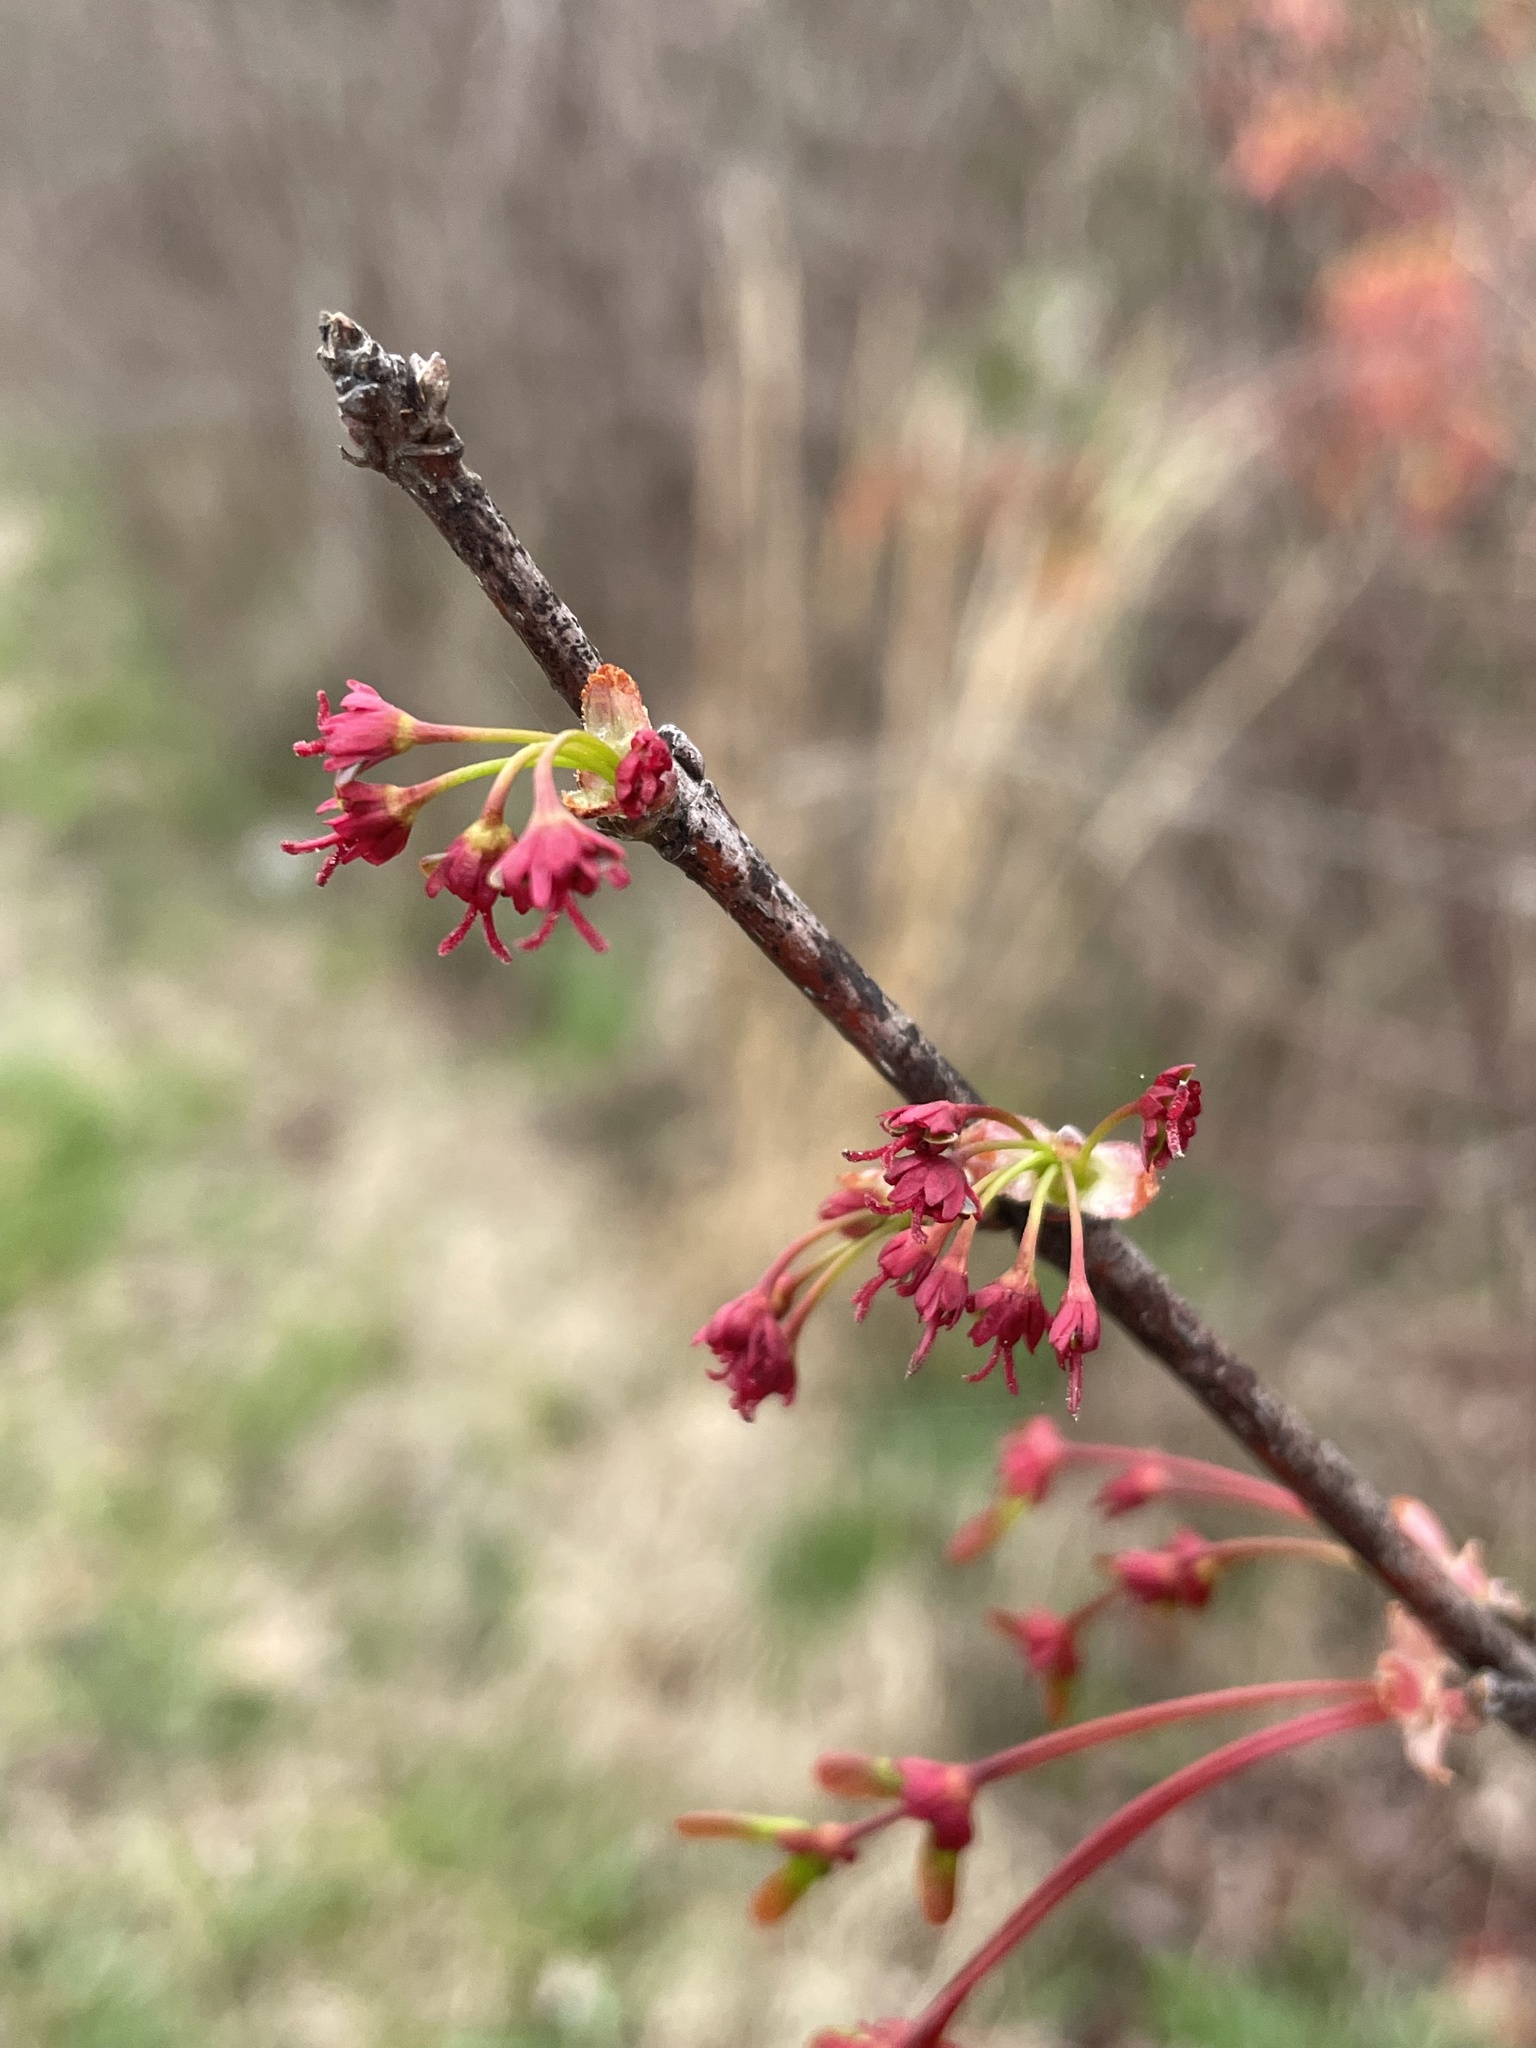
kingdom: Plantae
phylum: Tracheophyta
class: Magnoliopsida
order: Sapindales
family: Sapindaceae
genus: Acer
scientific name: Acer rubrum
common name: Red maple
